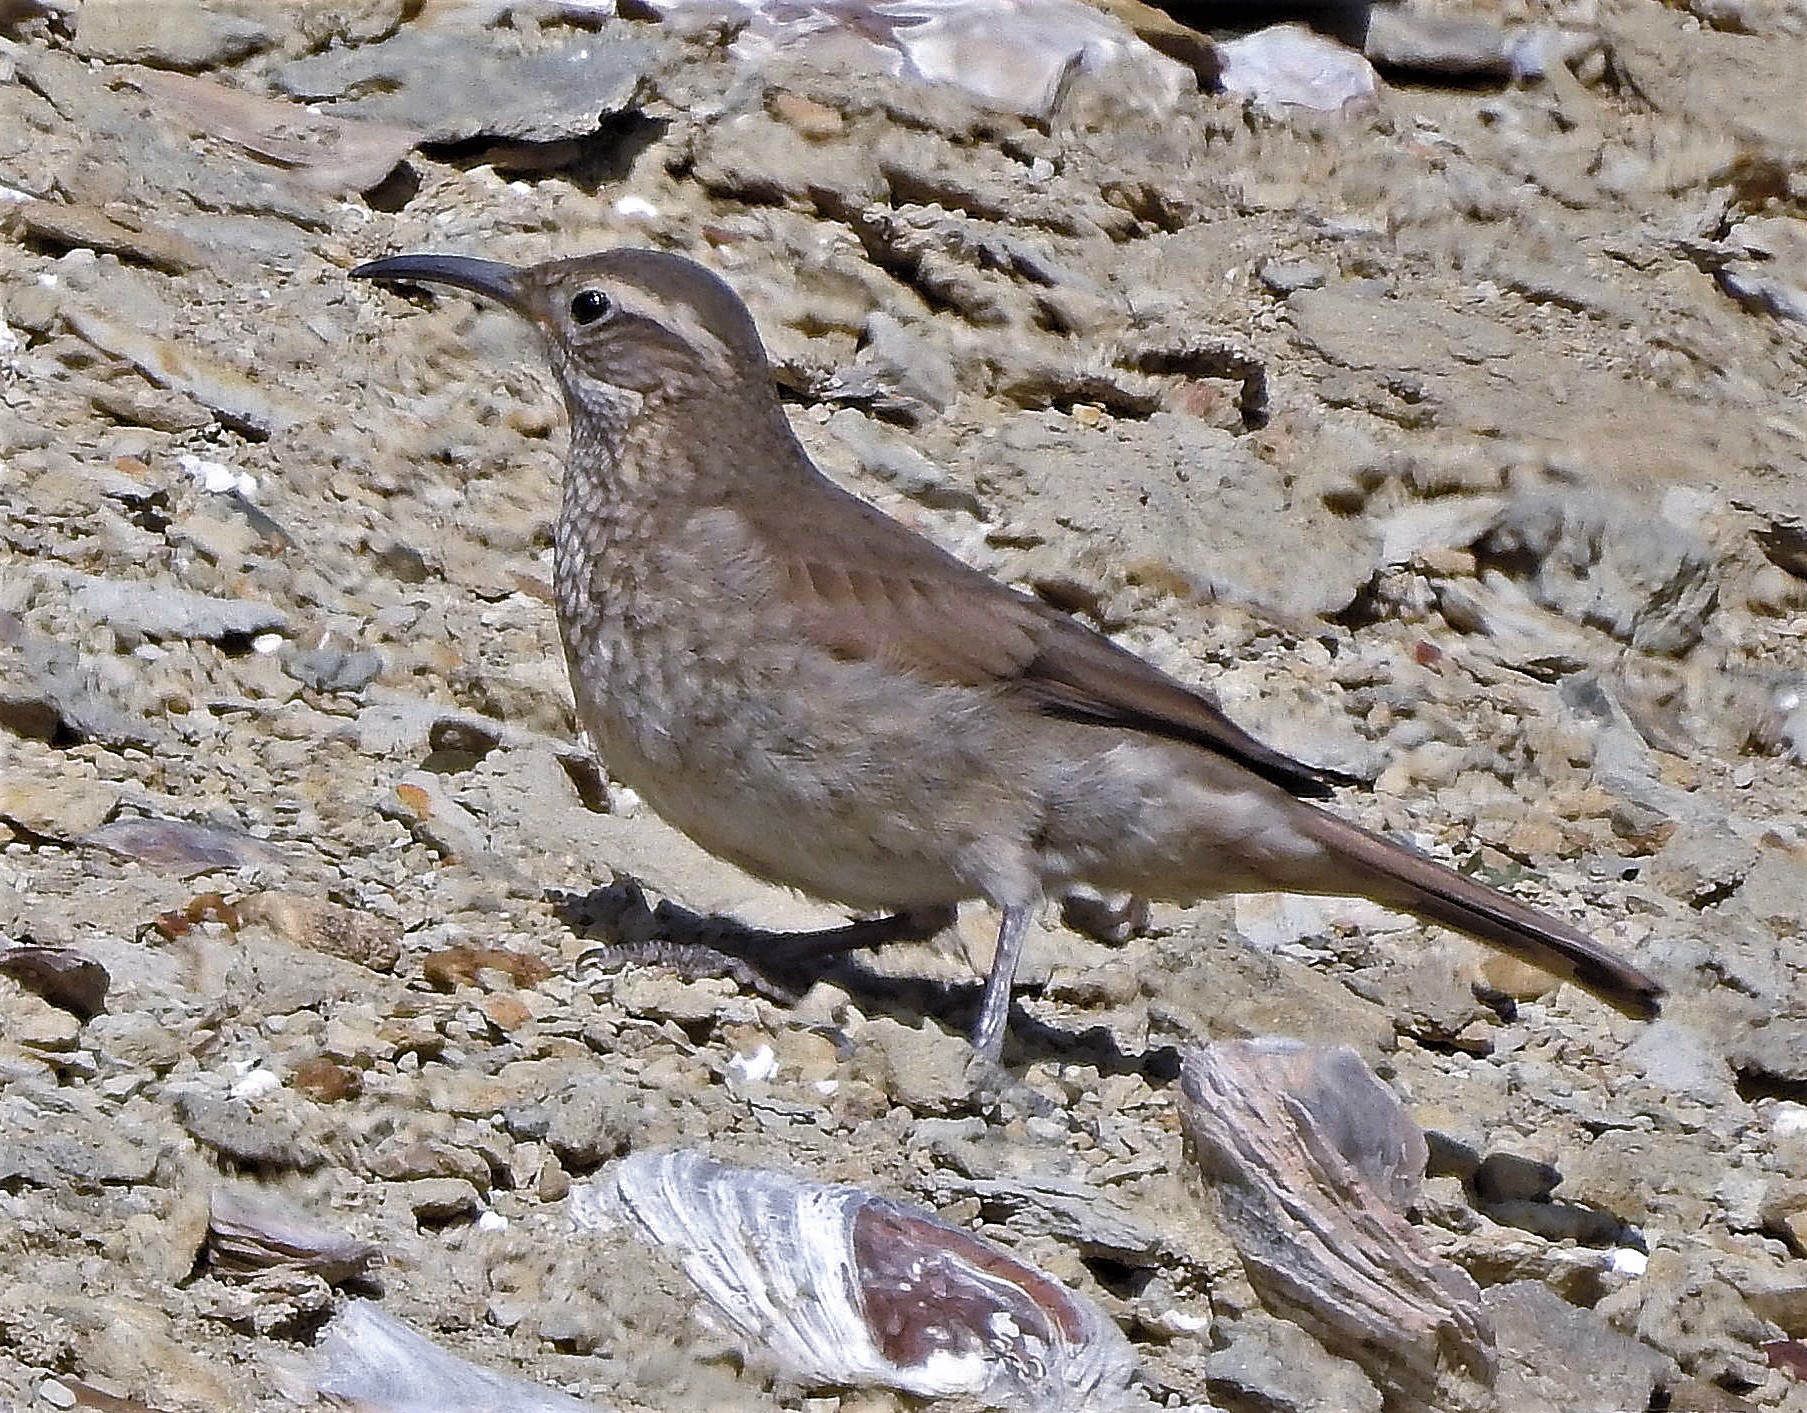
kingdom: Animalia
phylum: Chordata
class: Aves
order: Passeriformes
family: Furnariidae
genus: Upucerthia
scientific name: Upucerthia dumetaria
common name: Scale-throated earthcreeper
